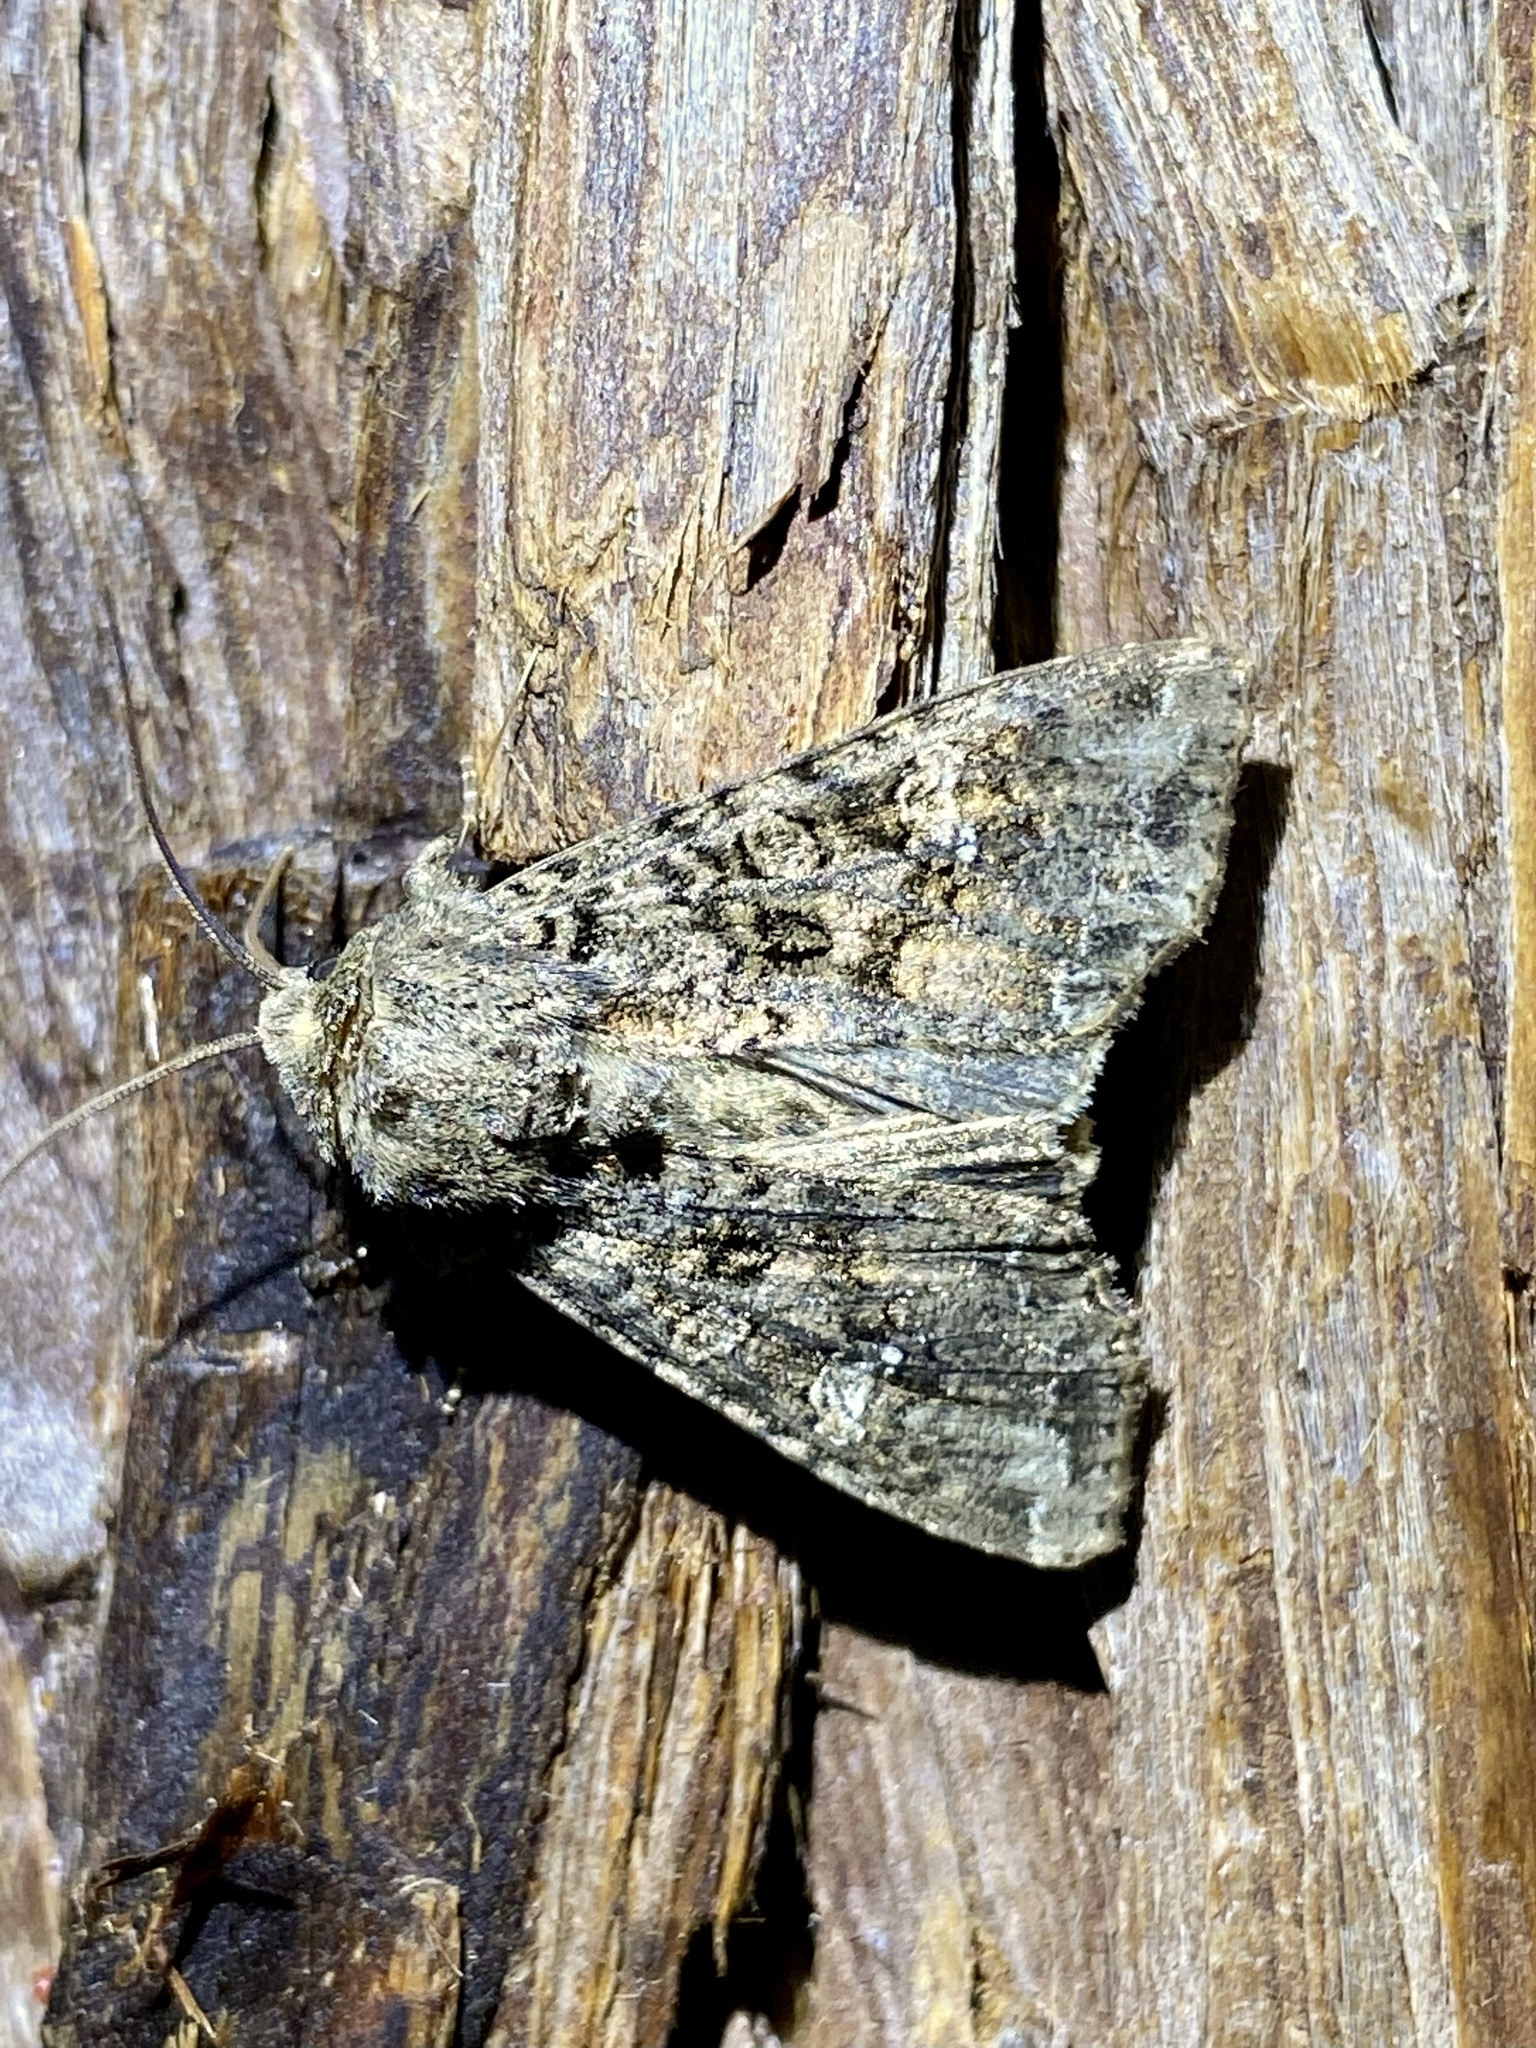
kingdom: Animalia
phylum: Arthropoda
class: Insecta
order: Lepidoptera
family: Noctuidae
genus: Mamestra
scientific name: Mamestra brassicae
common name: Cabbage moth
